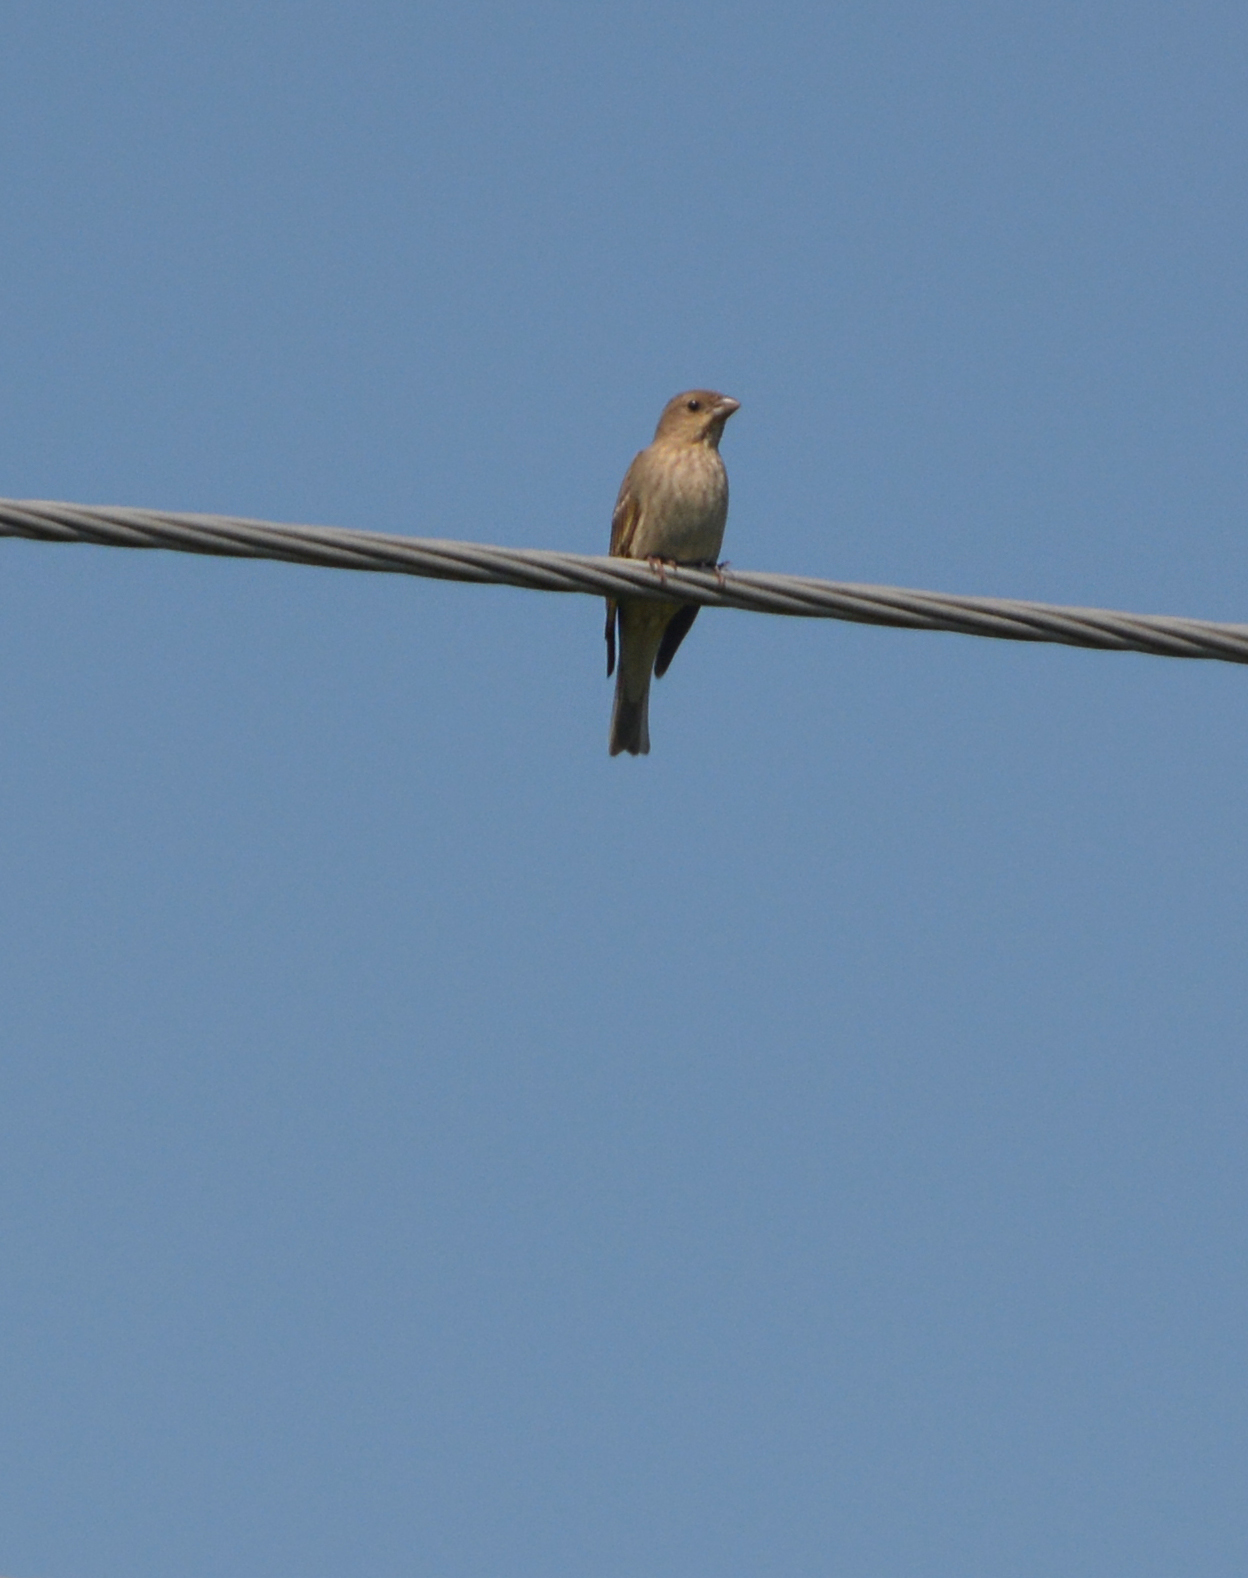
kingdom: Animalia
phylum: Chordata
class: Aves
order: Passeriformes
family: Fringillidae
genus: Carpodacus
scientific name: Carpodacus erythrinus
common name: Common rosefinch
